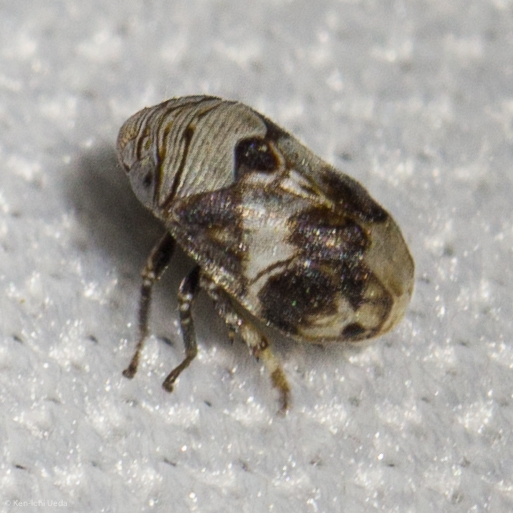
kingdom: Animalia
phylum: Arthropoda
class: Insecta
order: Hemiptera
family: Clastopteridae
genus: Clastoptera
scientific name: Clastoptera arizonana
